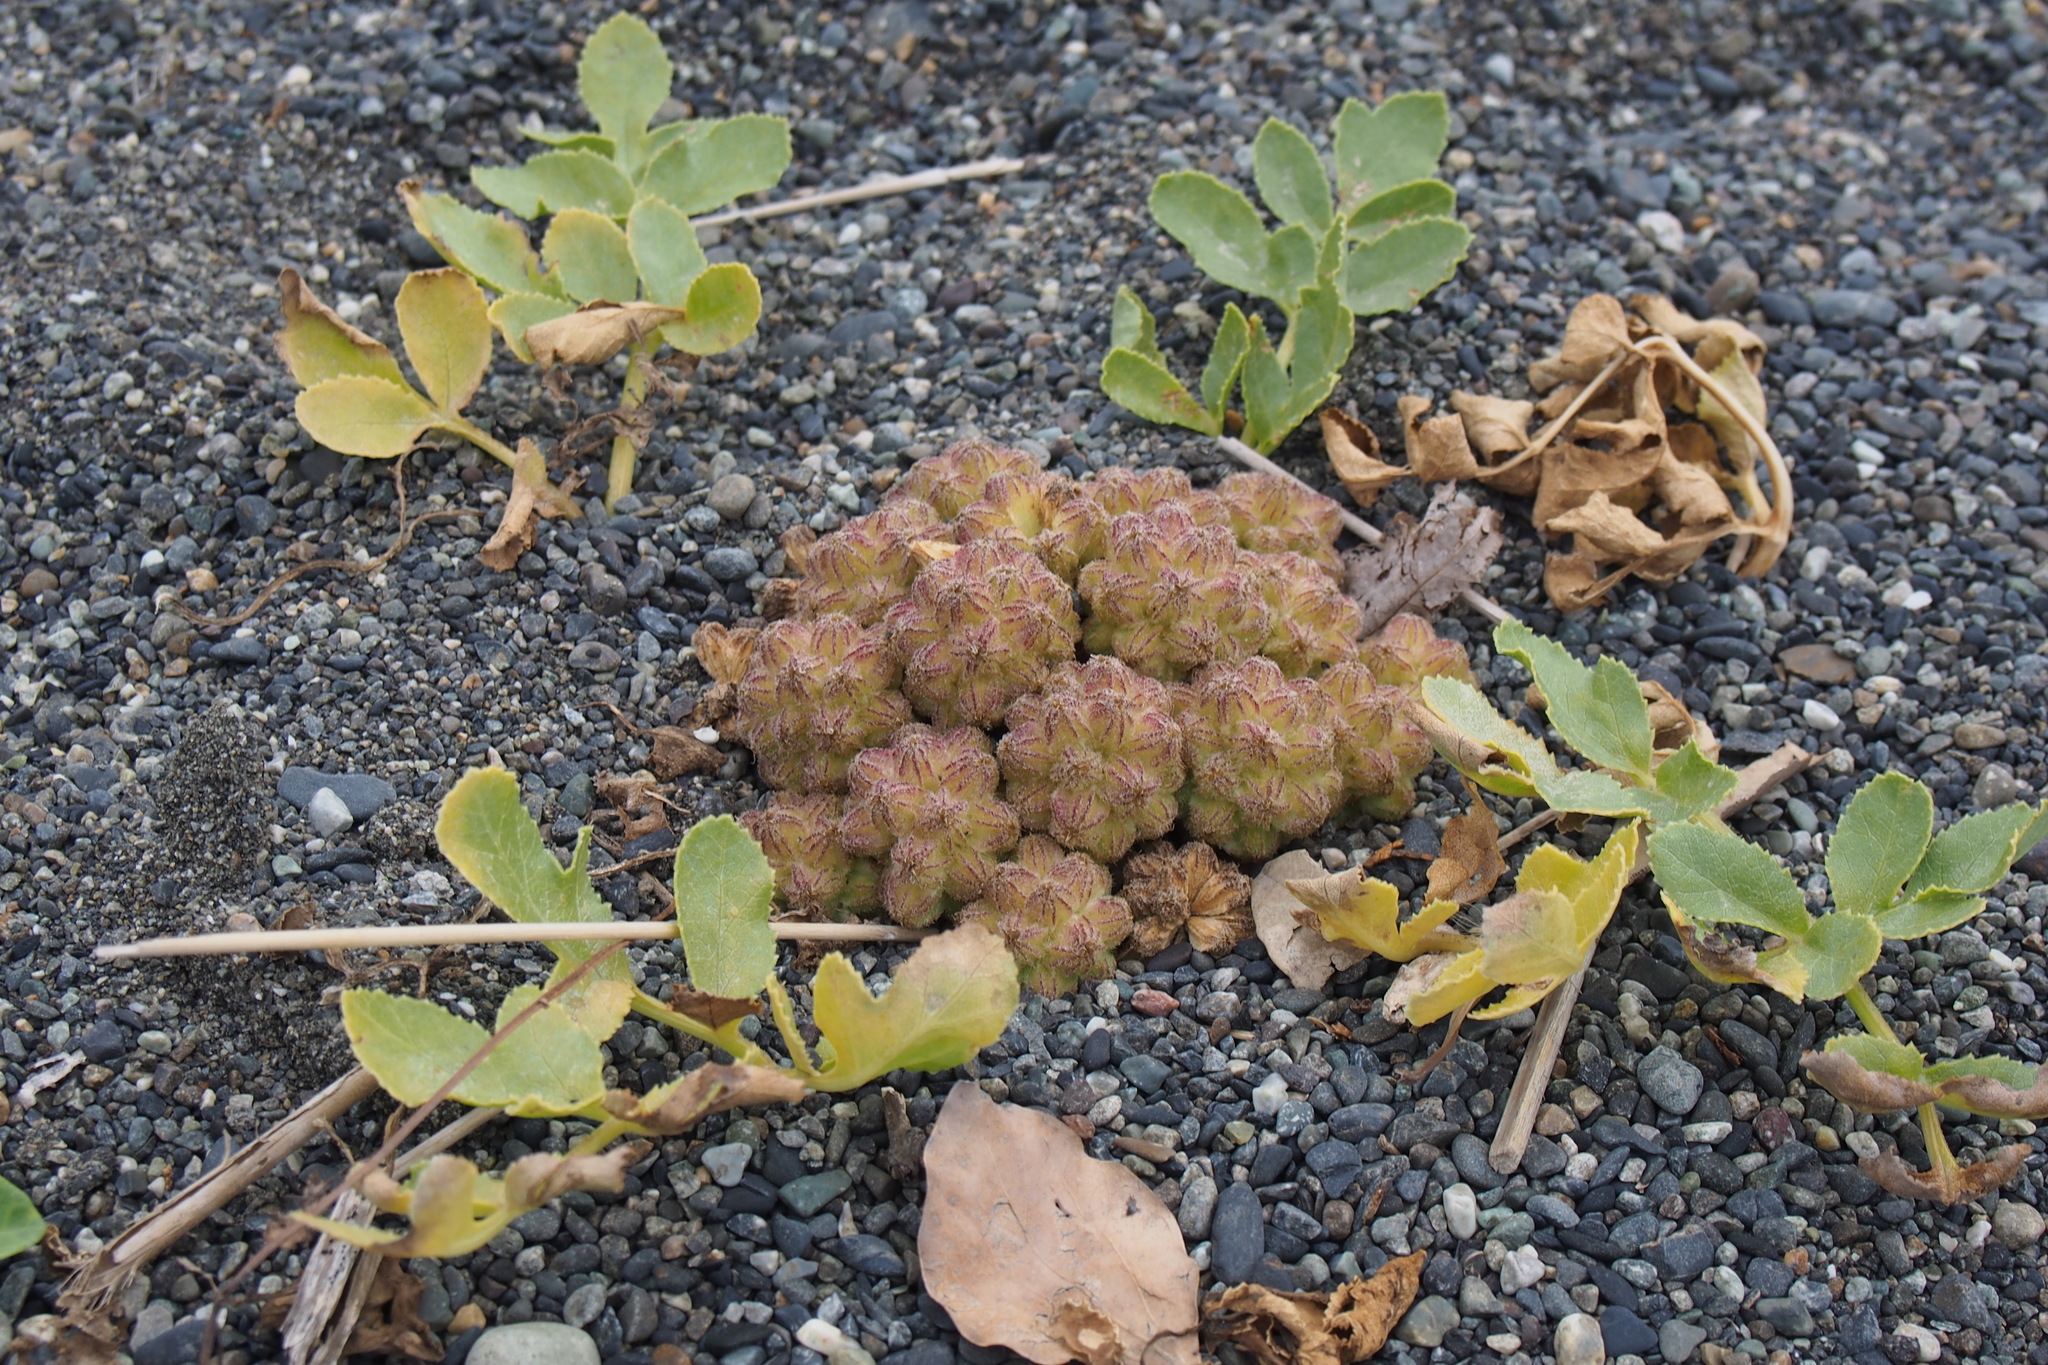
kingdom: Plantae
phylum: Tracheophyta
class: Magnoliopsida
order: Apiales
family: Apiaceae
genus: Glehnia
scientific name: Glehnia littoralis
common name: Beach silvertop
